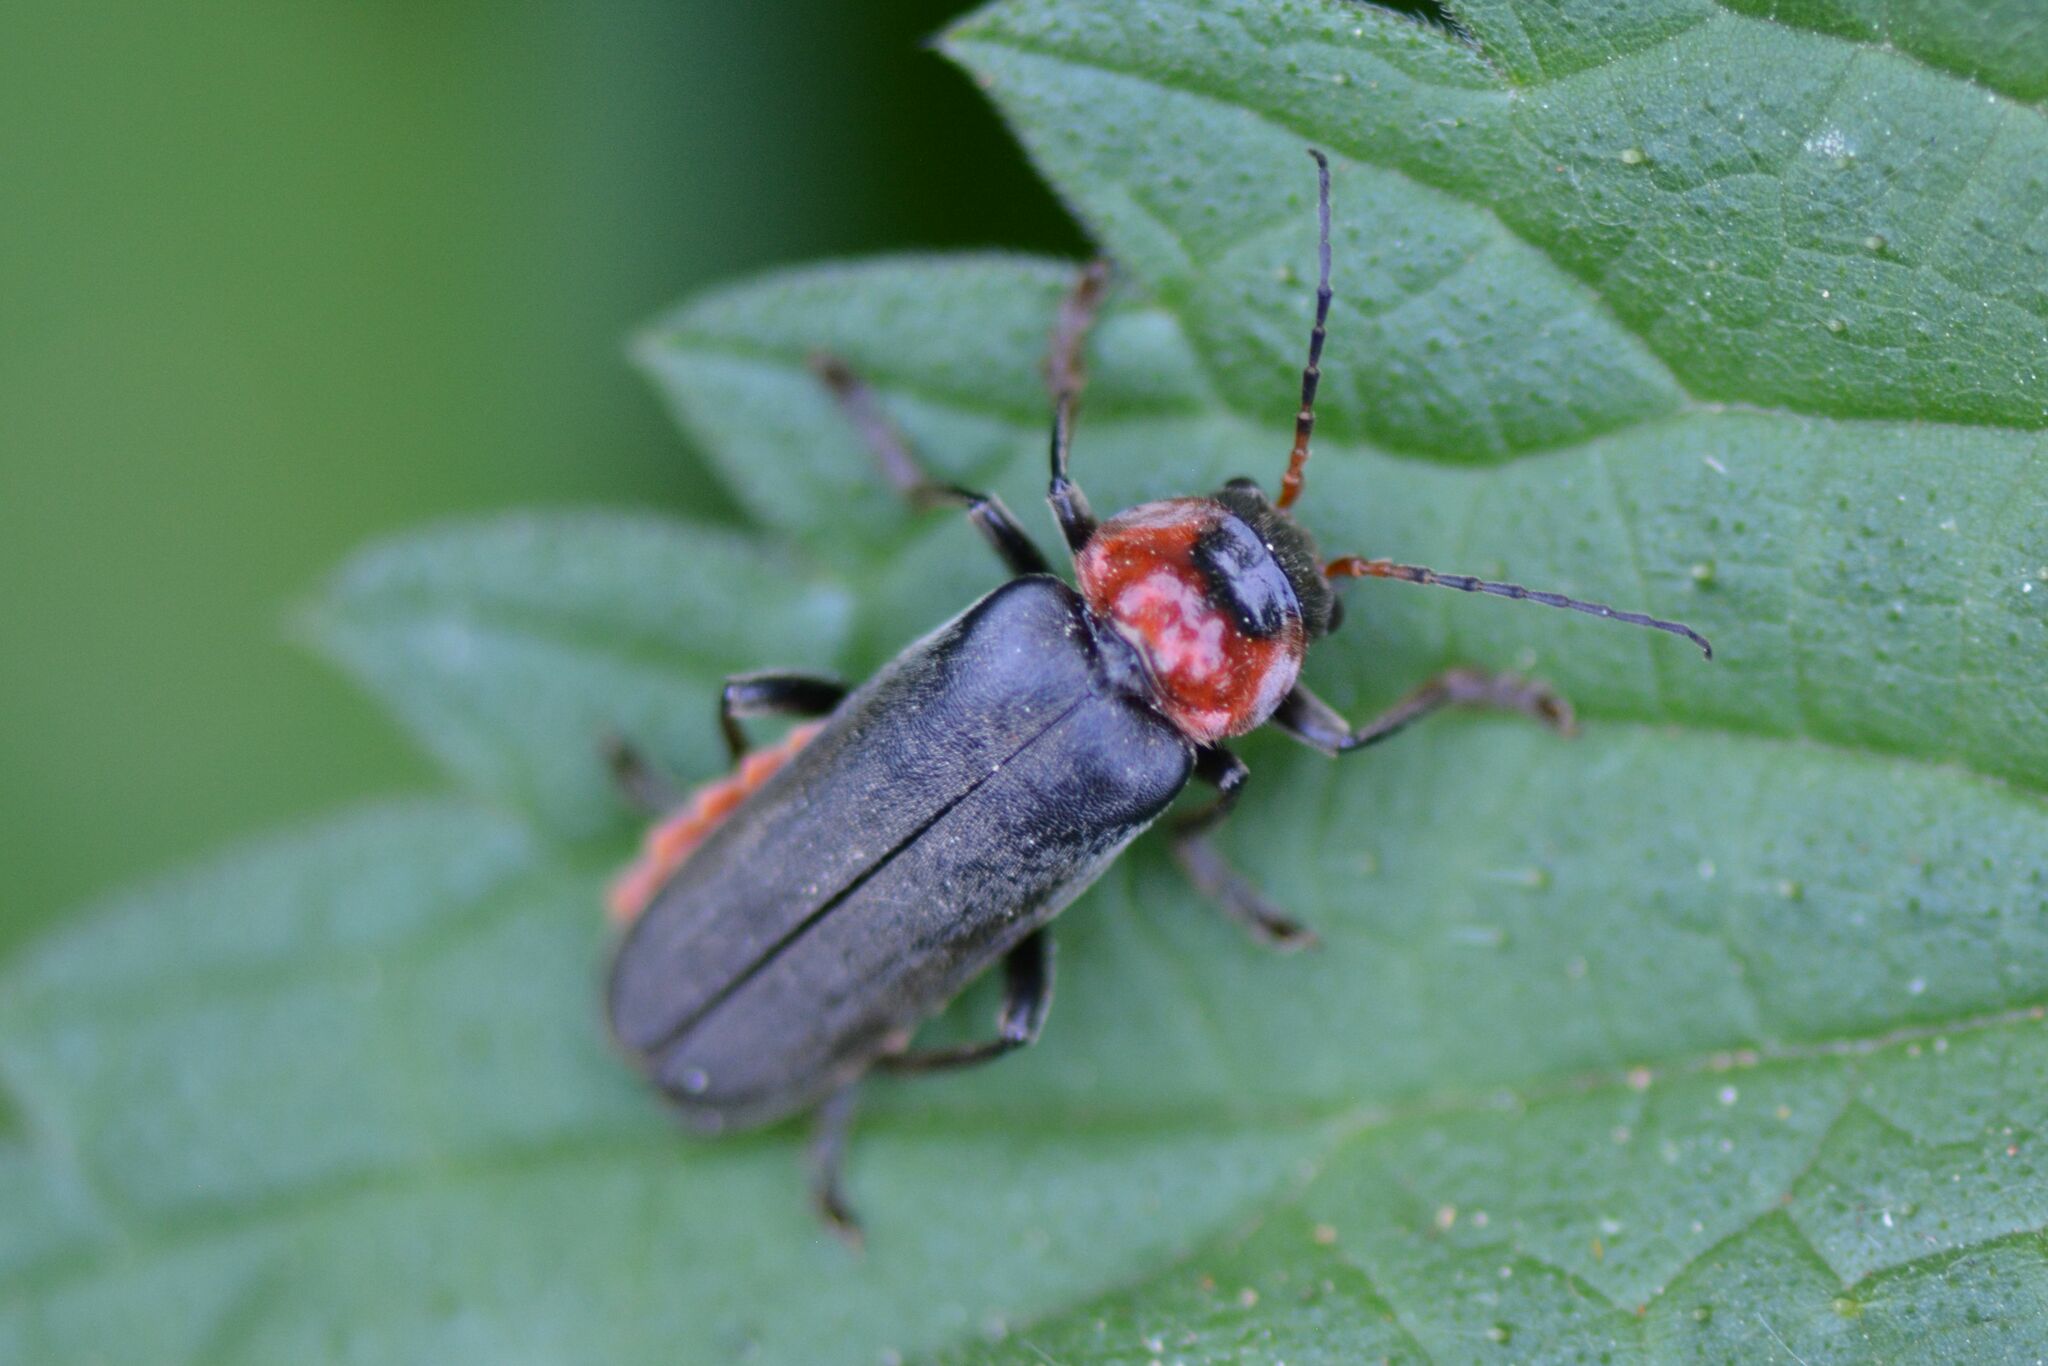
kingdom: Animalia
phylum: Arthropoda
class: Insecta
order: Coleoptera
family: Cantharidae
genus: Cantharis
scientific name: Cantharis fusca
